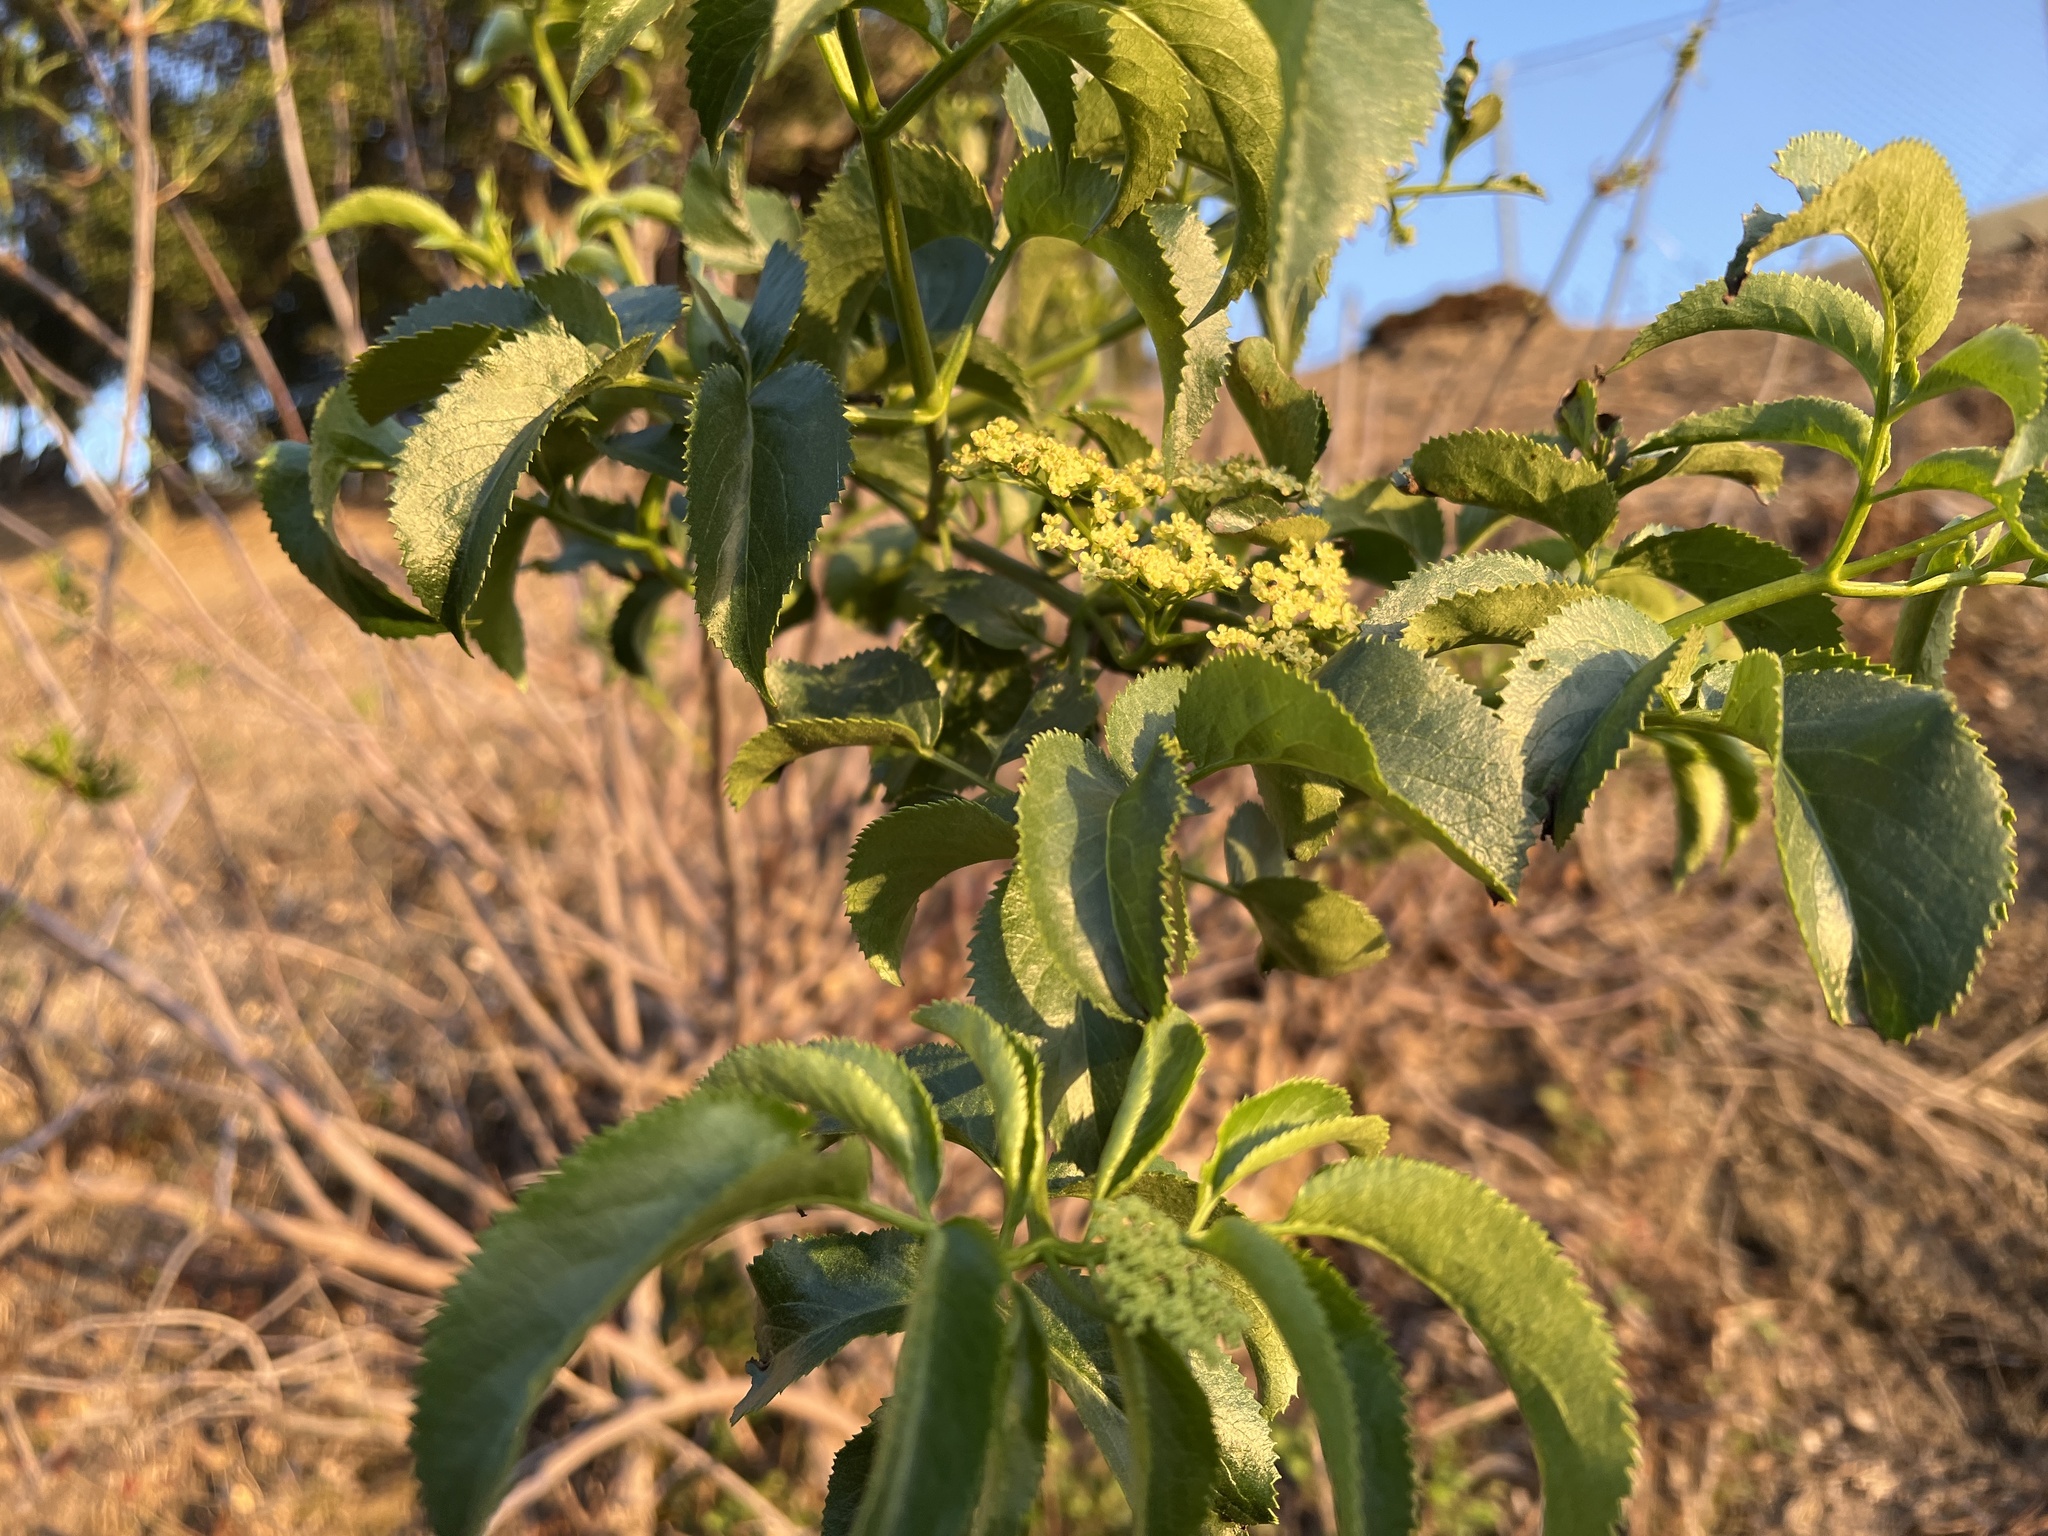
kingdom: Plantae
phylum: Tracheophyta
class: Magnoliopsida
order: Dipsacales
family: Viburnaceae
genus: Sambucus
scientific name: Sambucus cerulea
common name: Blue elder
